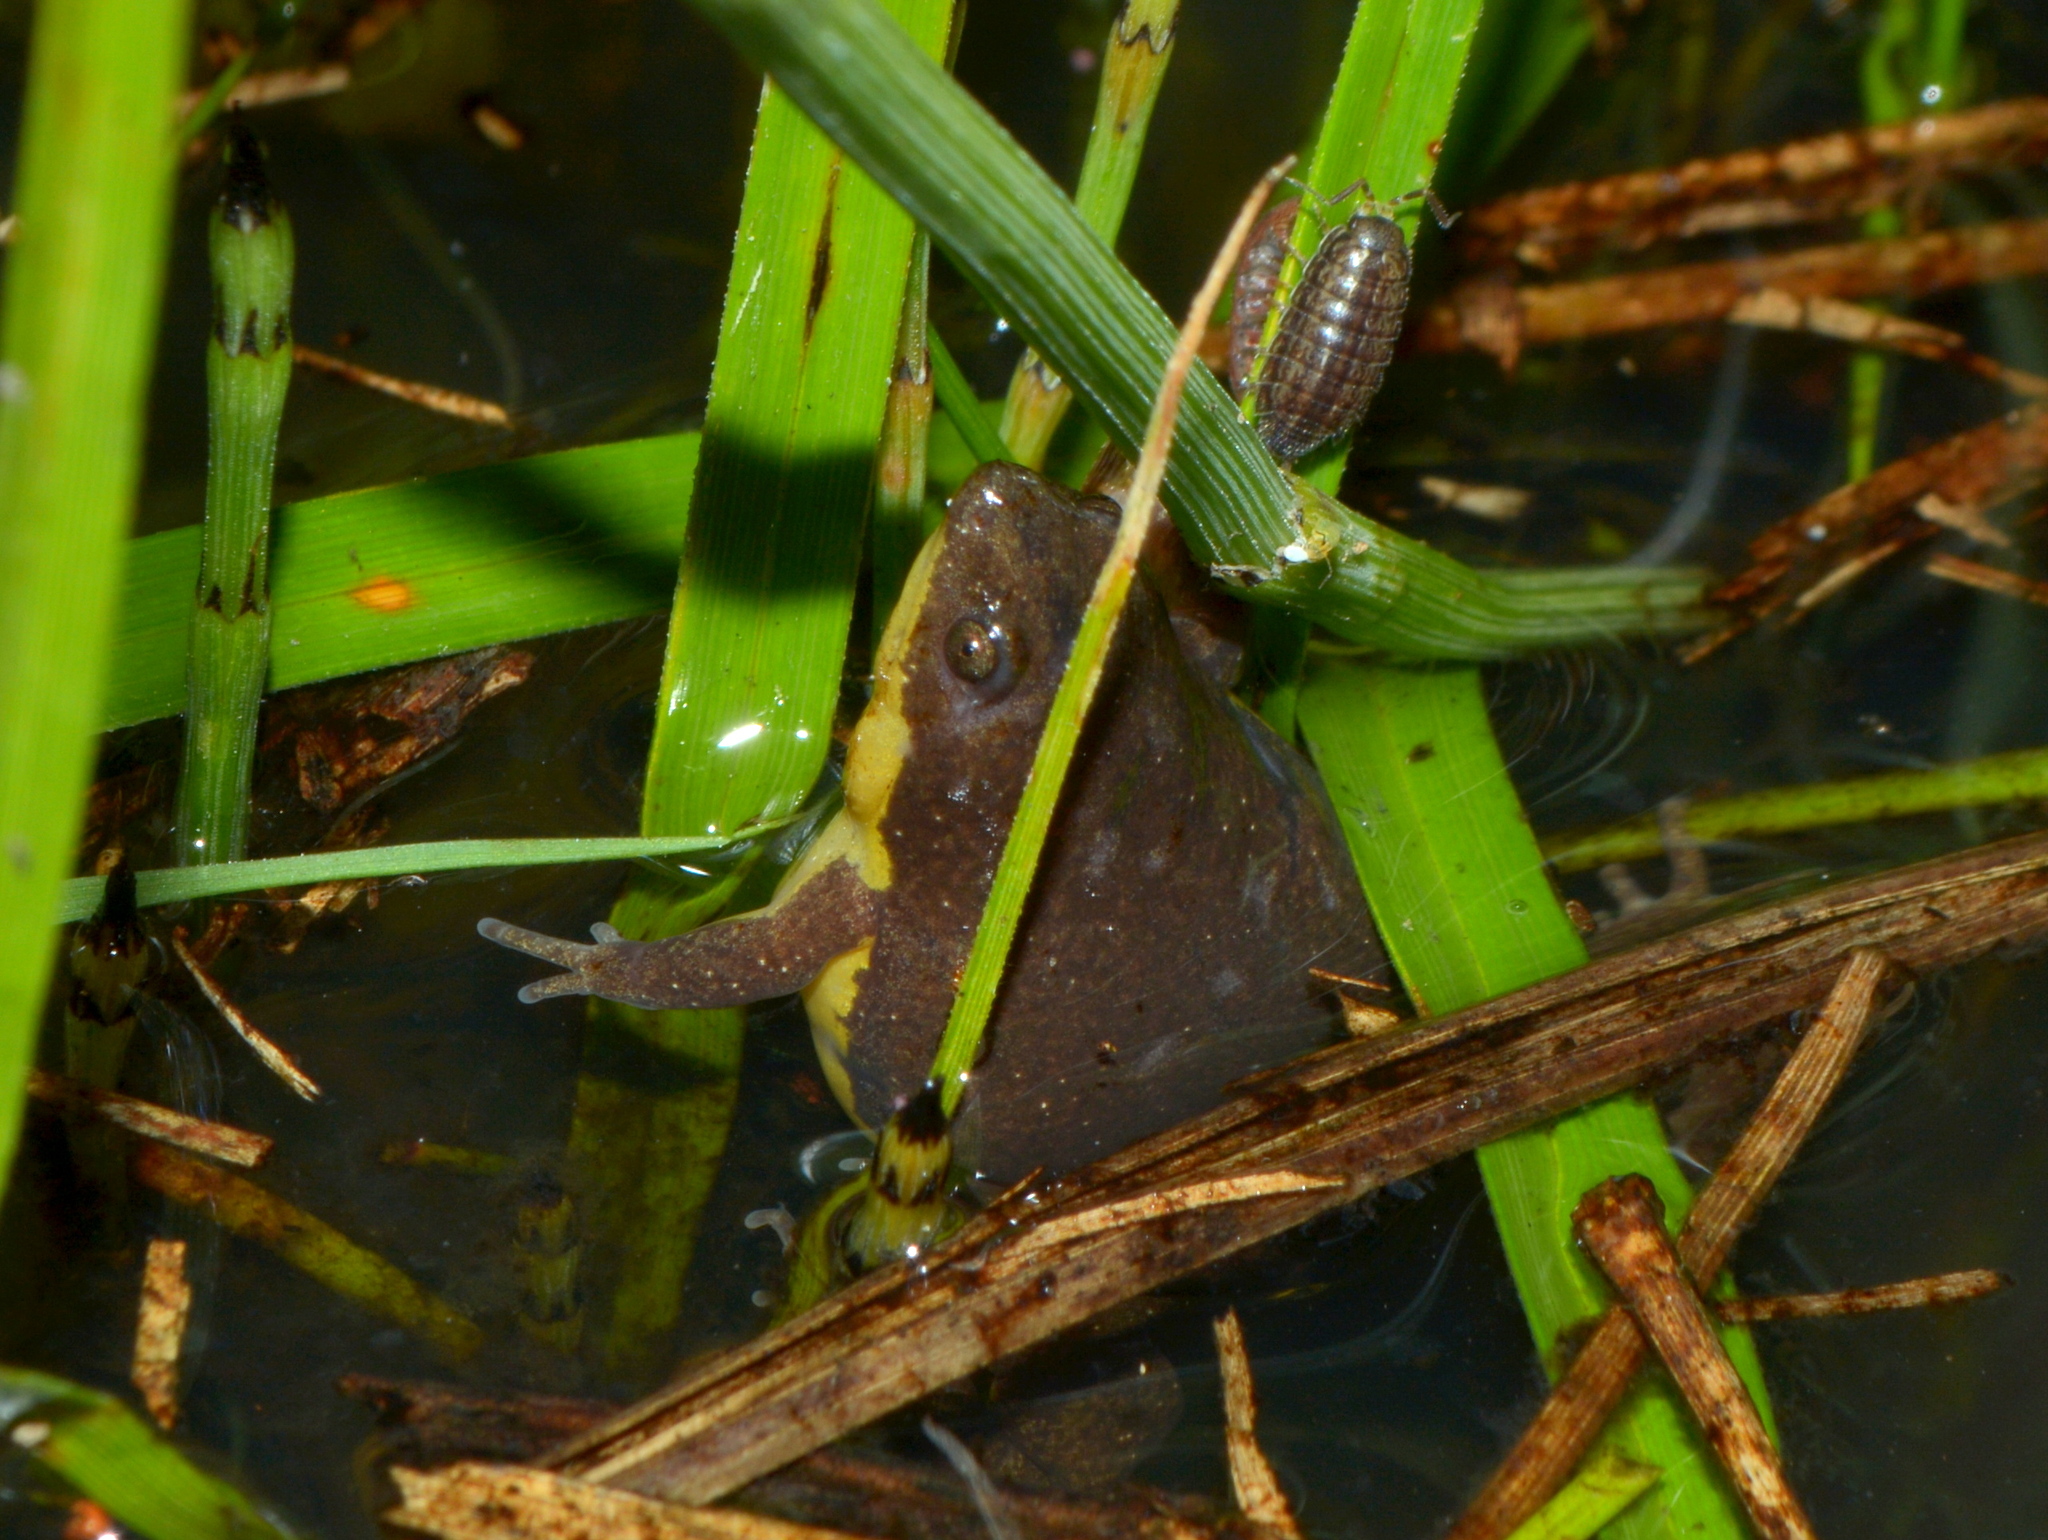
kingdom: Animalia
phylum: Chordata
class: Amphibia
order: Anura
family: Microhylidae
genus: Elachistocleis
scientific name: Elachistocleis bicolor
